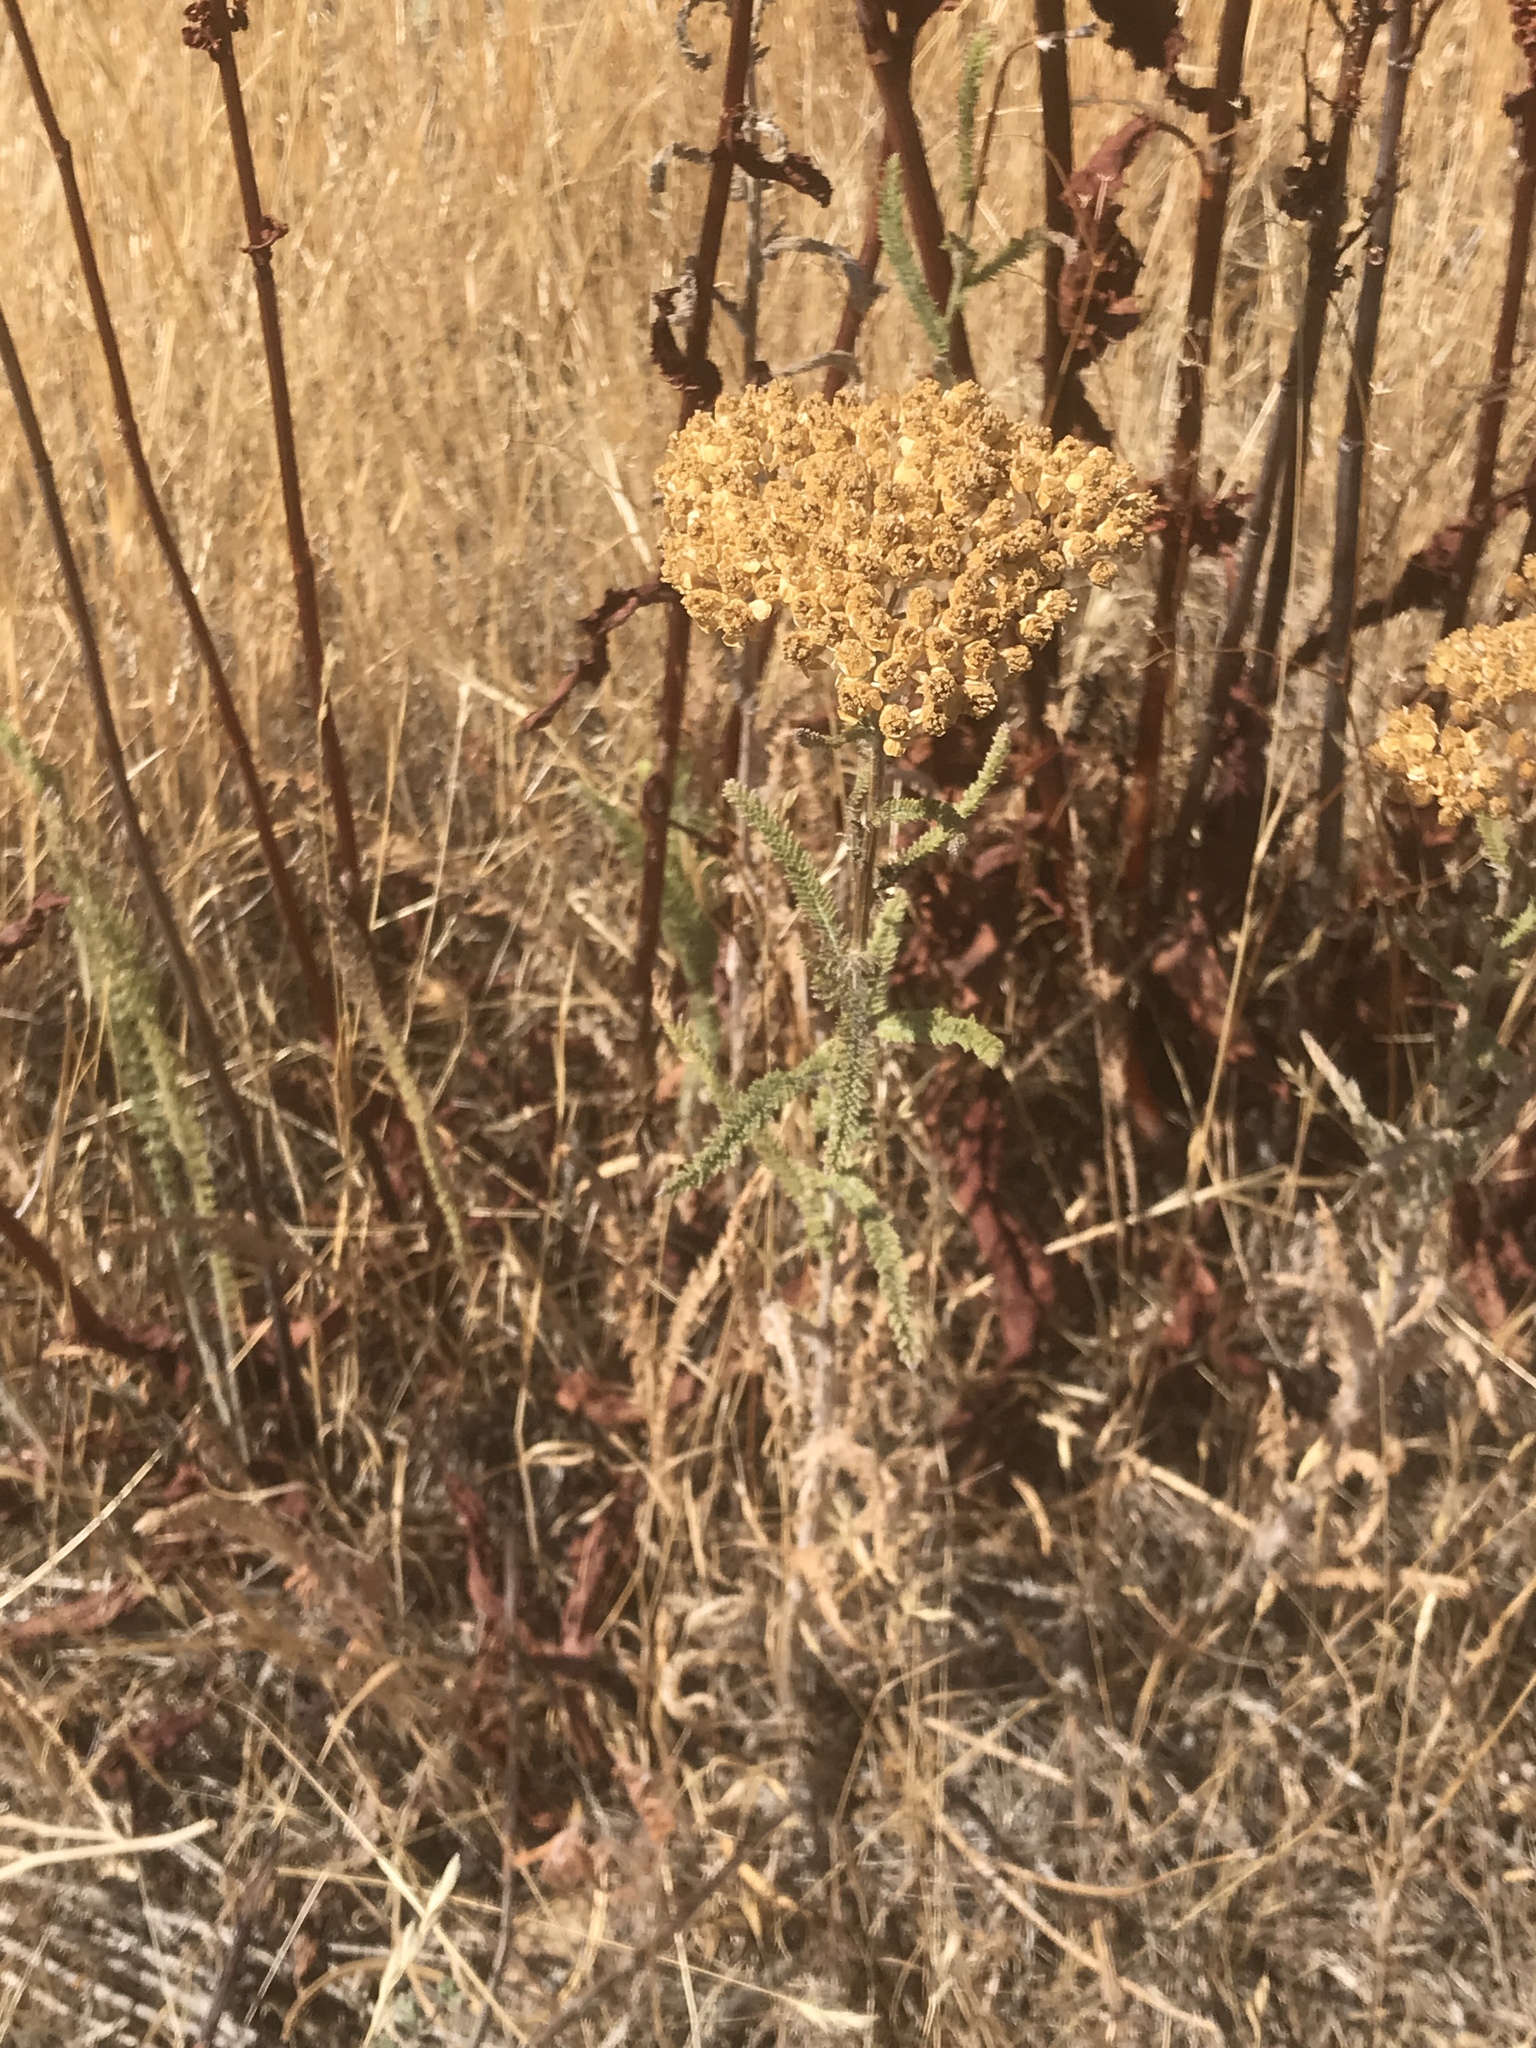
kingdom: Plantae
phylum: Tracheophyta
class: Magnoliopsida
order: Asterales
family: Asteraceae
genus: Achillea
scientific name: Achillea millefolium
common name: Yarrow
